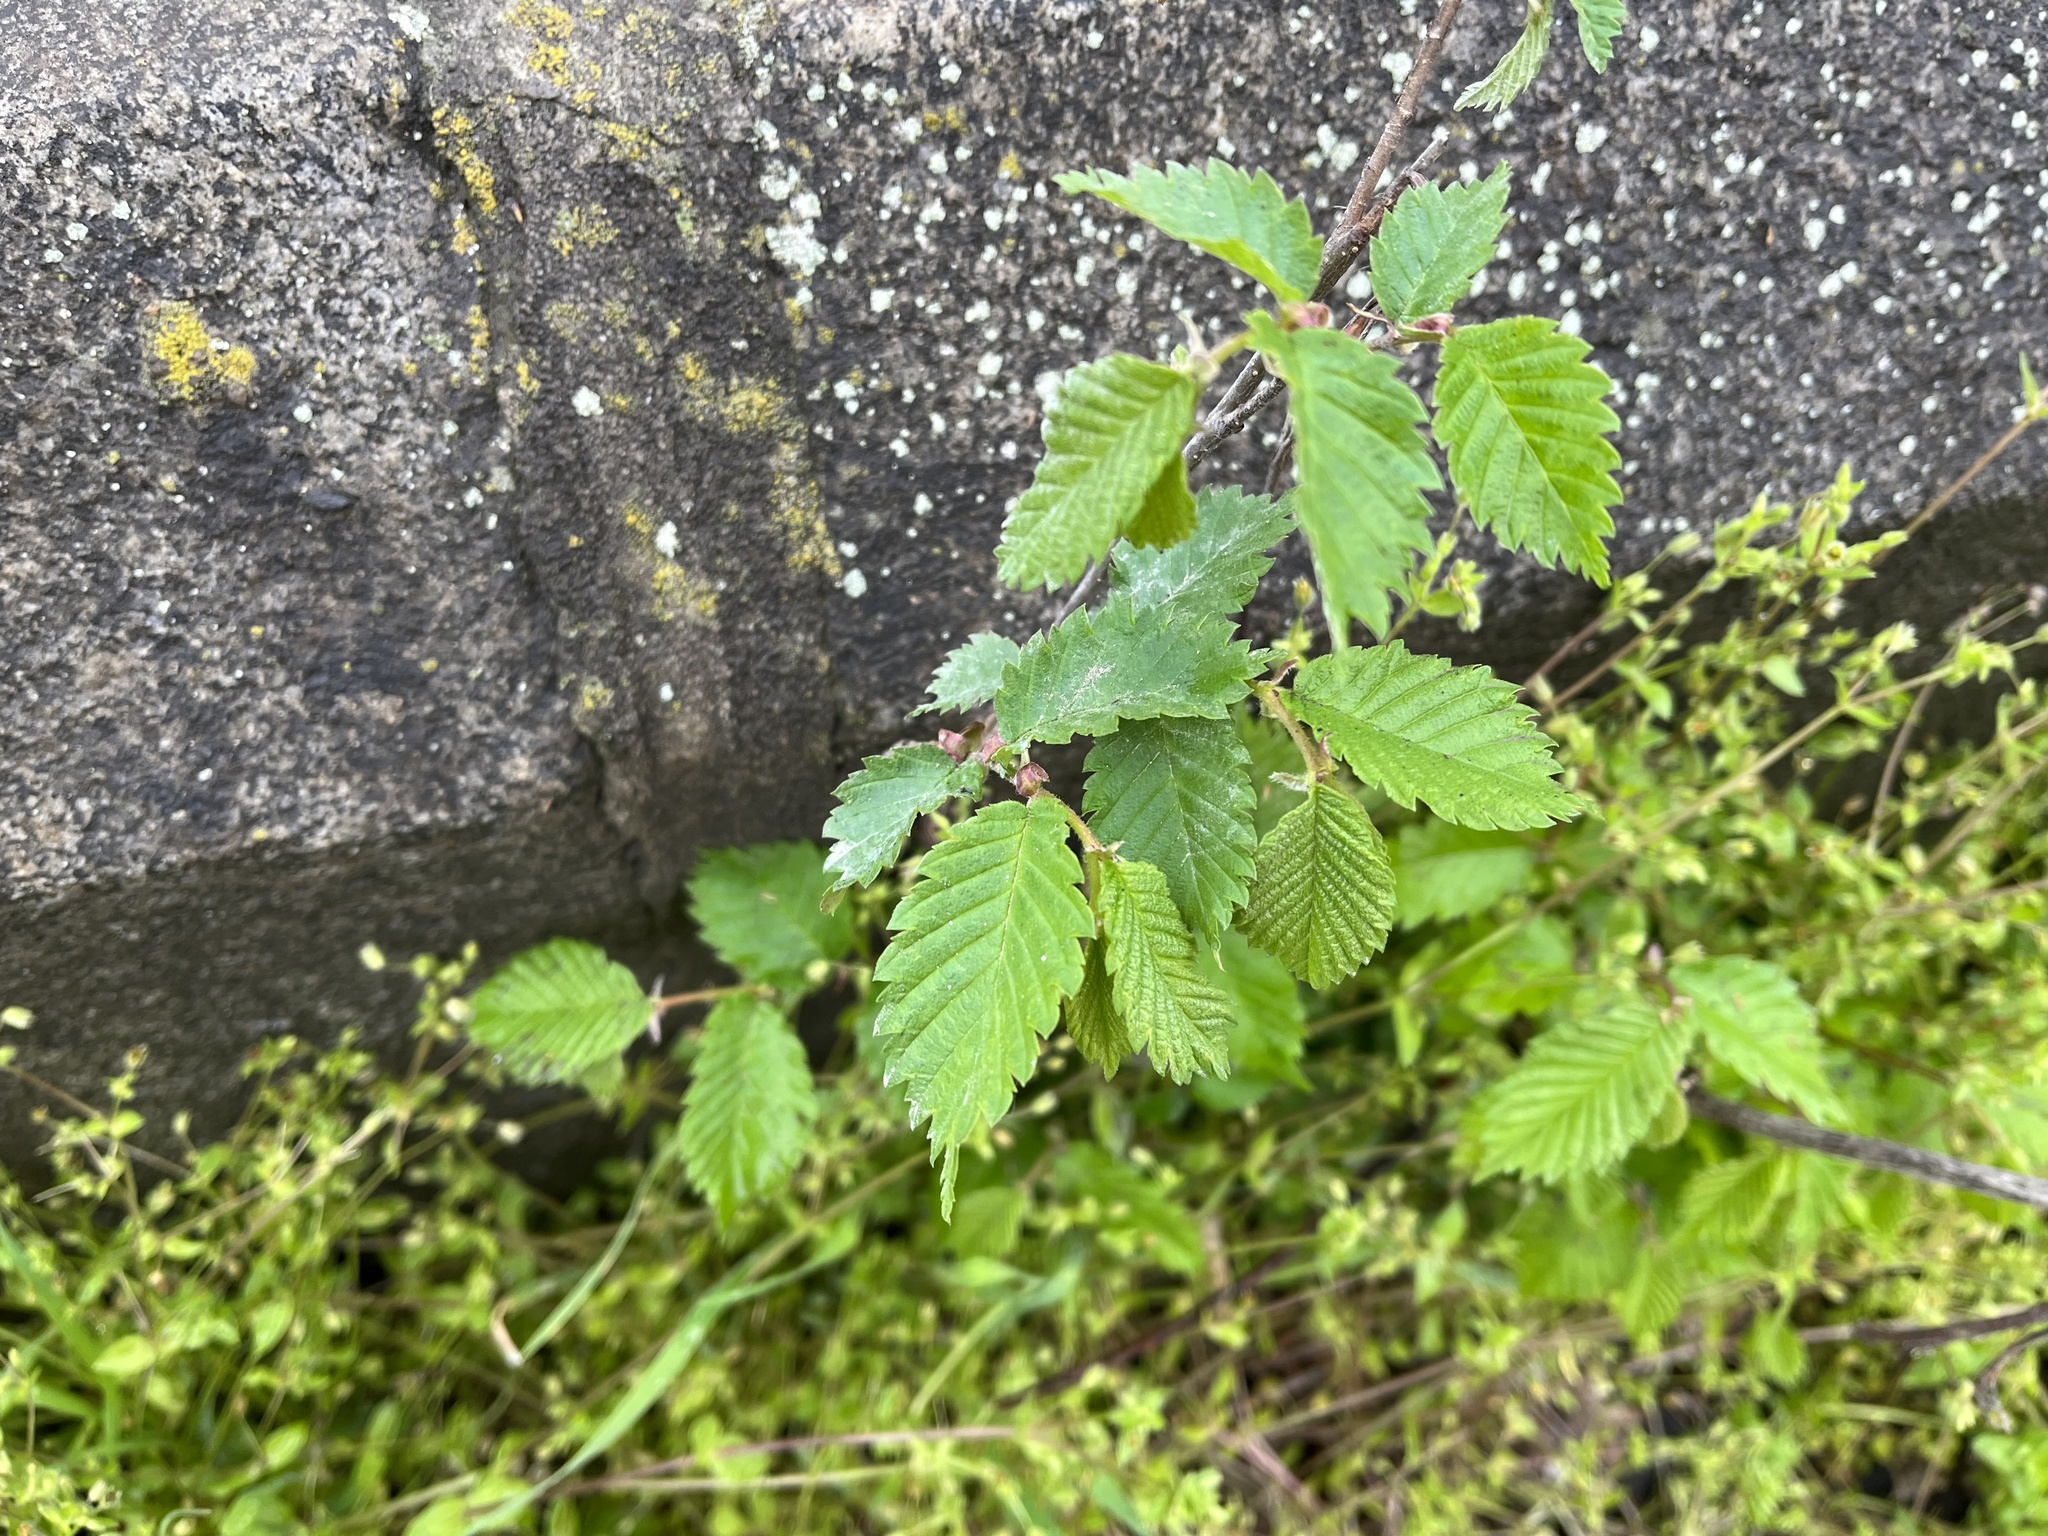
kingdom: Plantae
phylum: Tracheophyta
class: Magnoliopsida
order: Rosales
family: Ulmaceae
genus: Ulmus
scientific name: Ulmus minor
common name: Small-leaved elm
